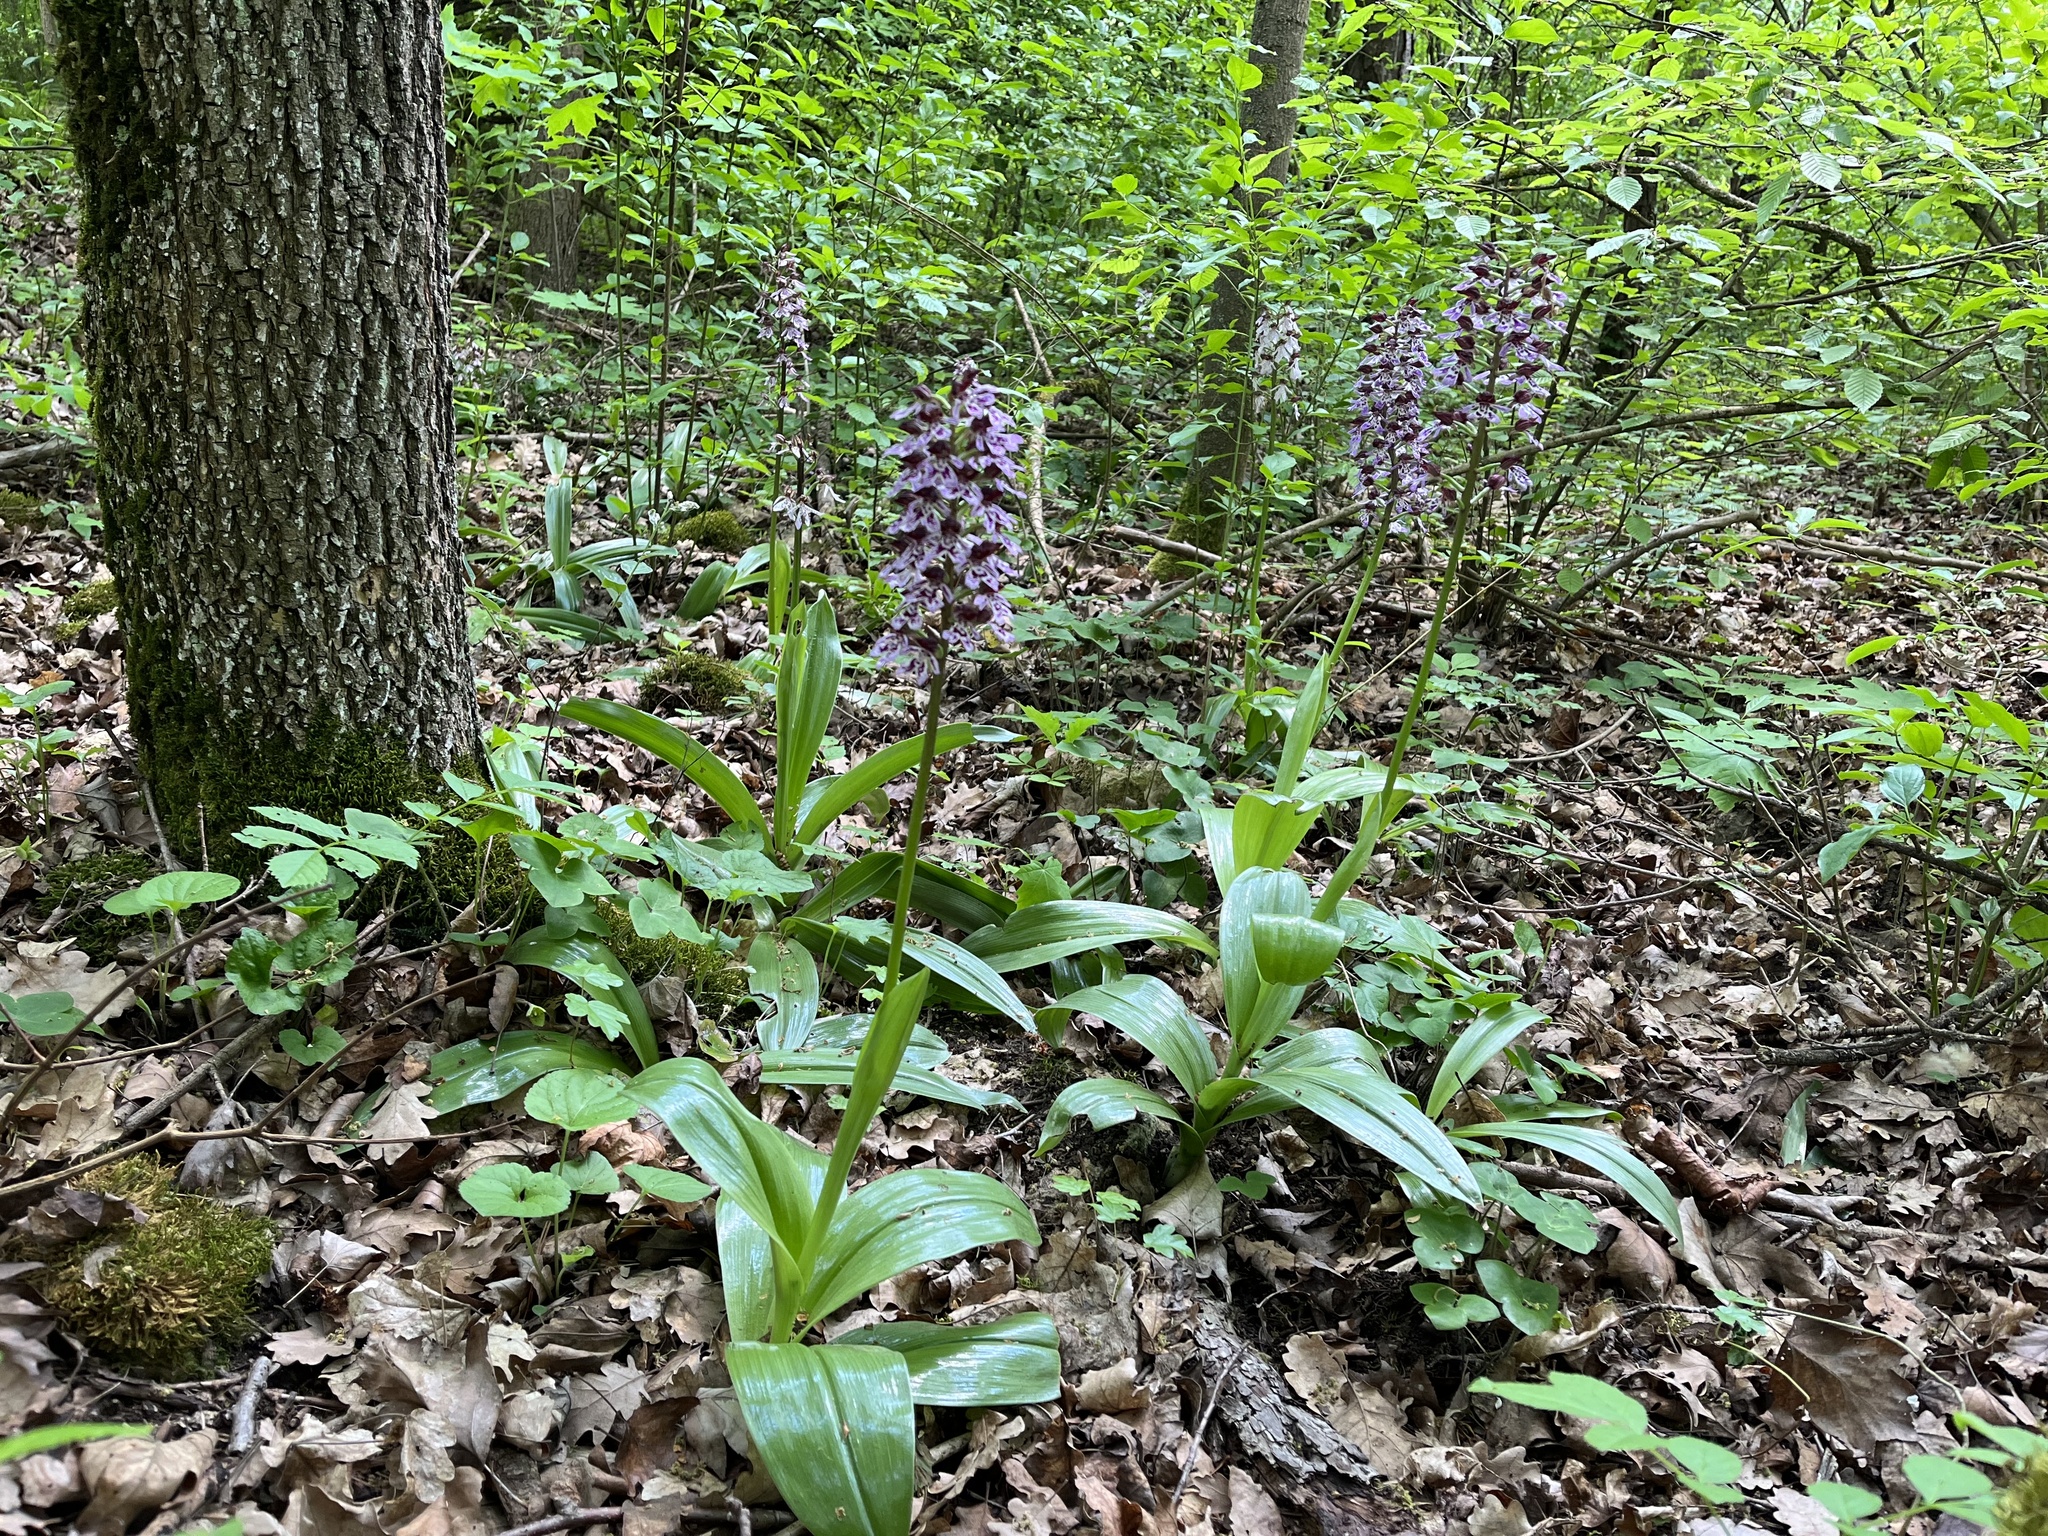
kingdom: Plantae
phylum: Tracheophyta
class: Liliopsida
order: Asparagales
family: Orchidaceae
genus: Orchis
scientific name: Orchis purpurea
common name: Lady orchid
